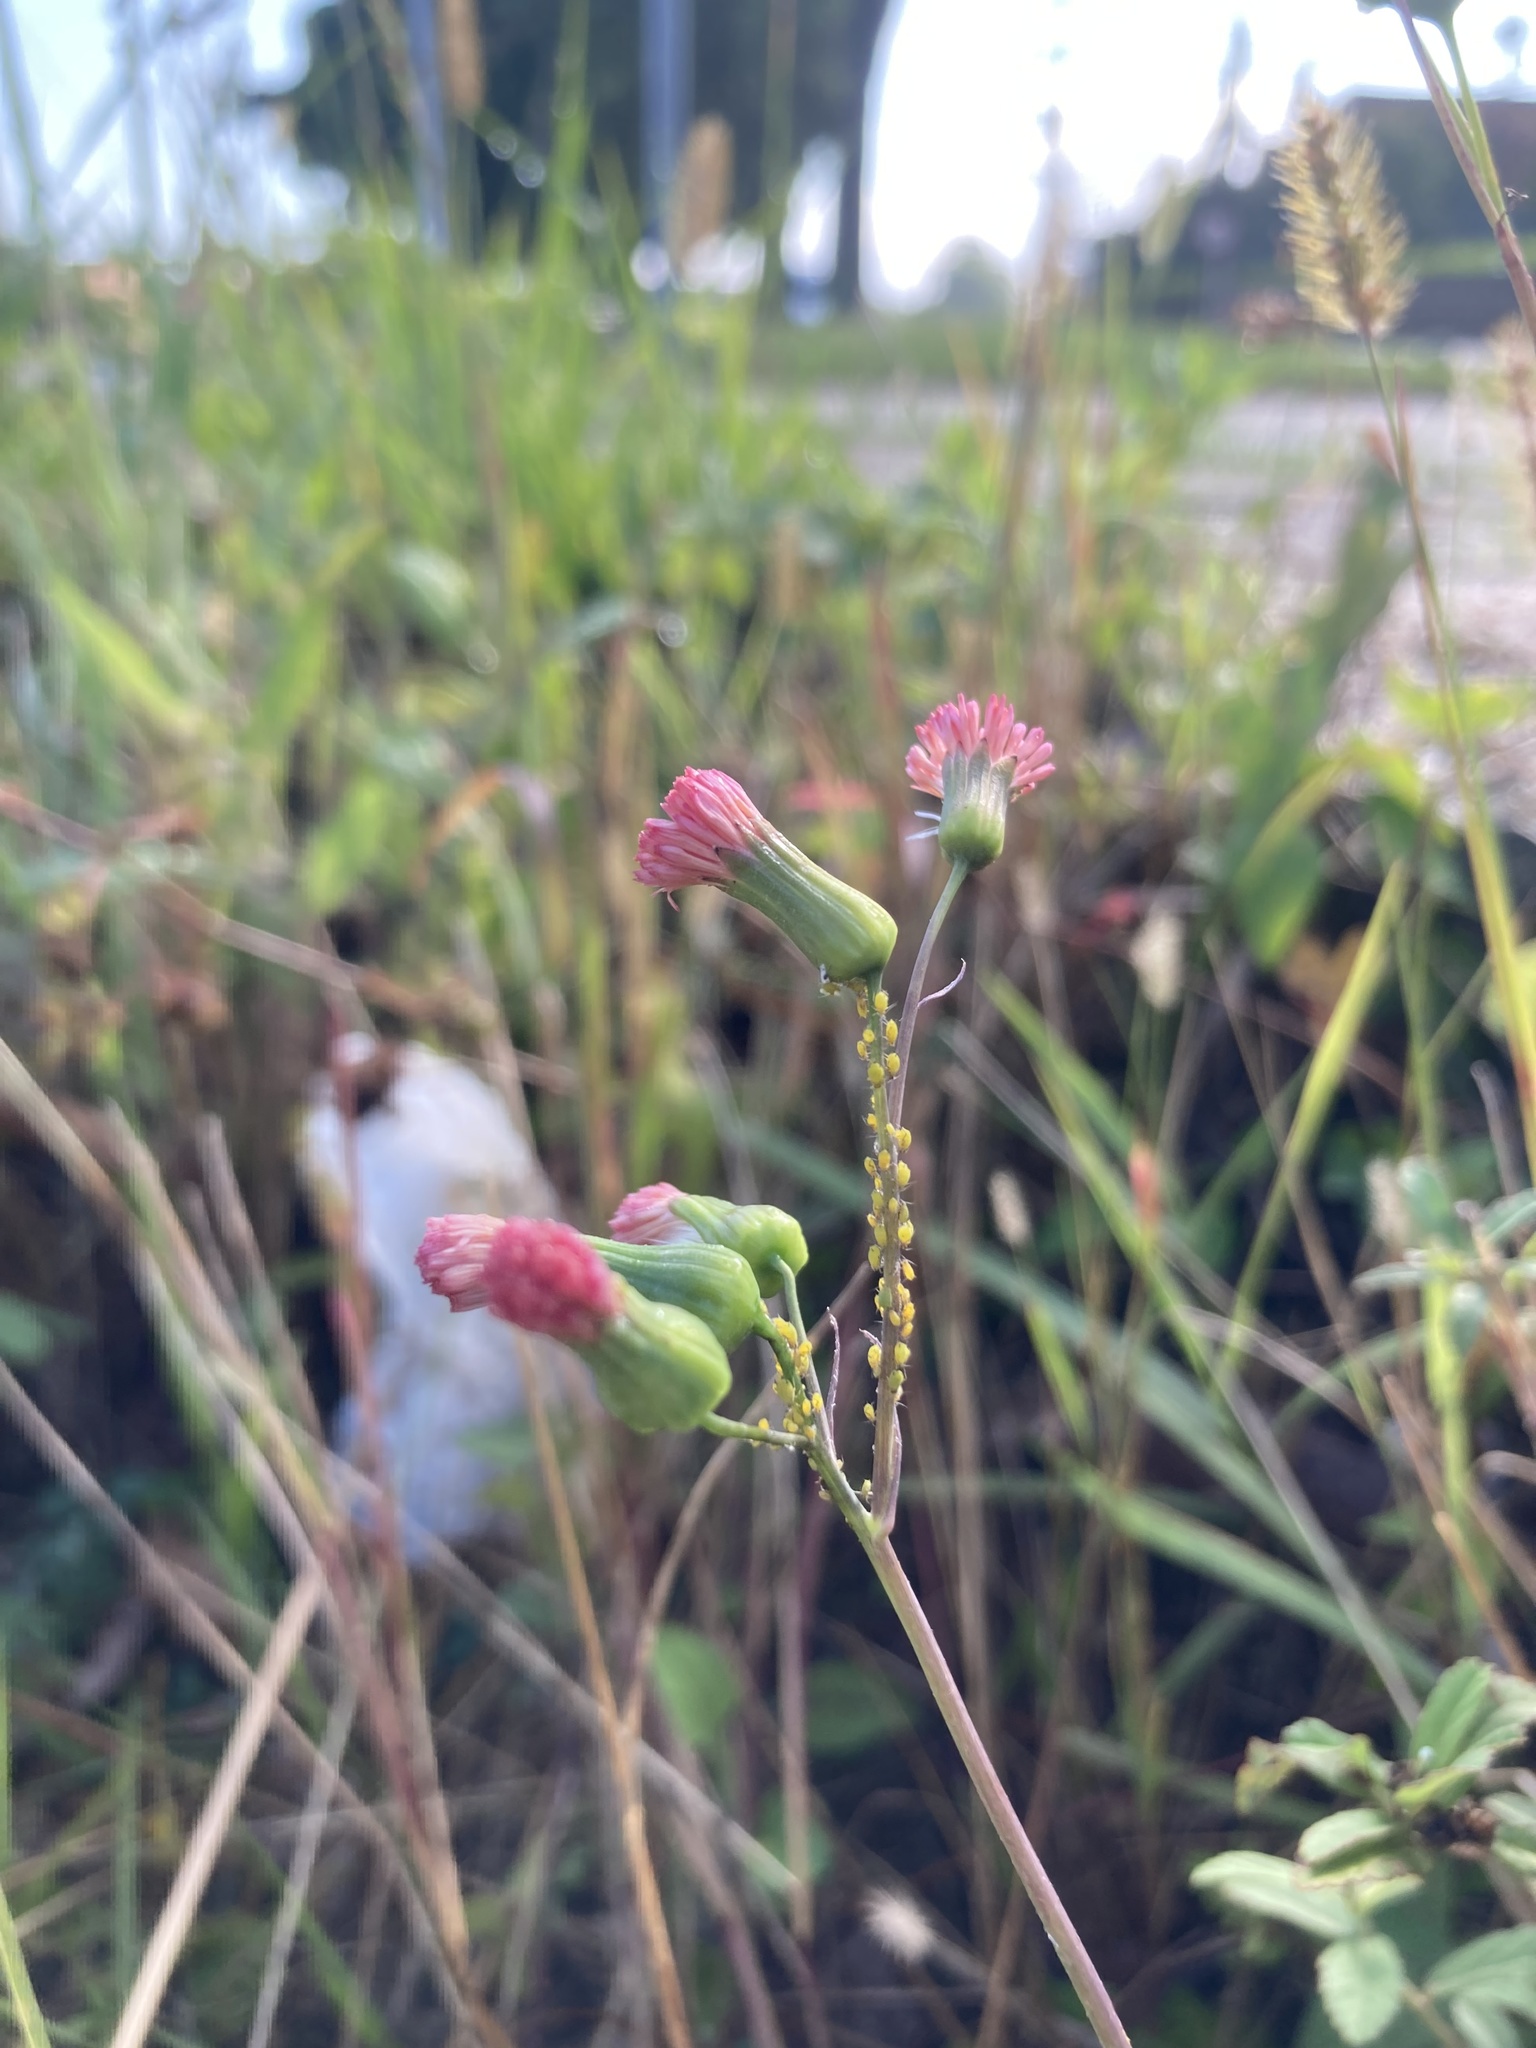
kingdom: Plantae
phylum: Tracheophyta
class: Magnoliopsida
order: Asterales
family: Asteraceae
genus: Emilia
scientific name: Emilia fosbergii
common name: Florida tasselflower
